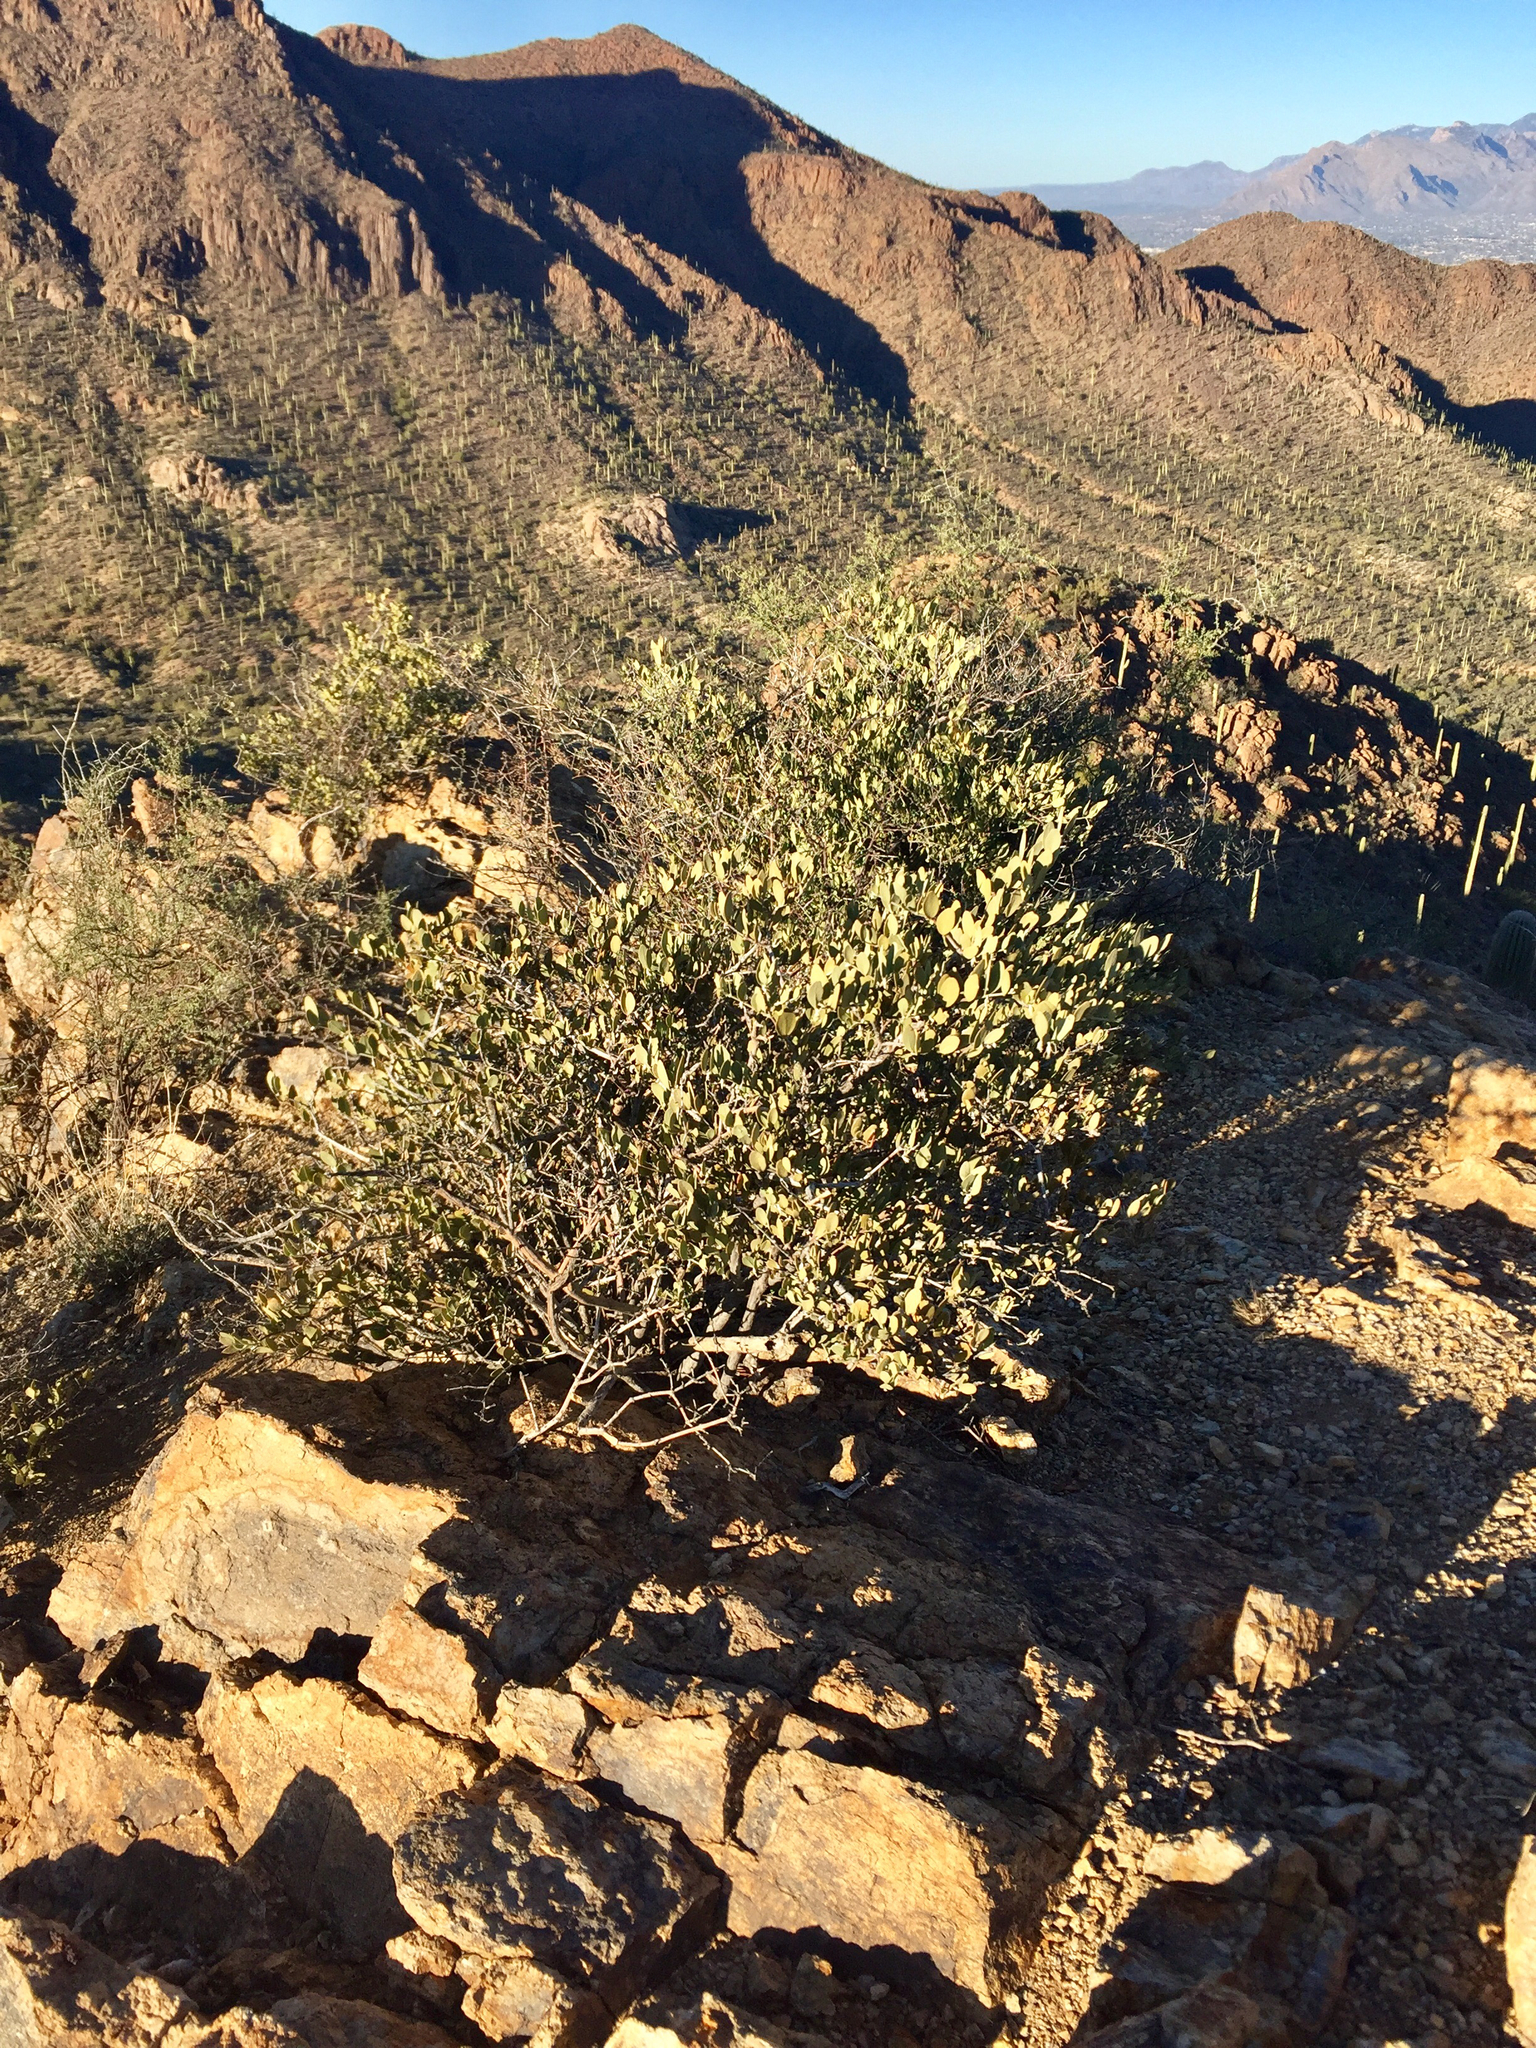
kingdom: Plantae
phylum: Tracheophyta
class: Magnoliopsida
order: Caryophyllales
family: Simmondsiaceae
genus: Simmondsia
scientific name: Simmondsia chinensis
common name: Jojoba
